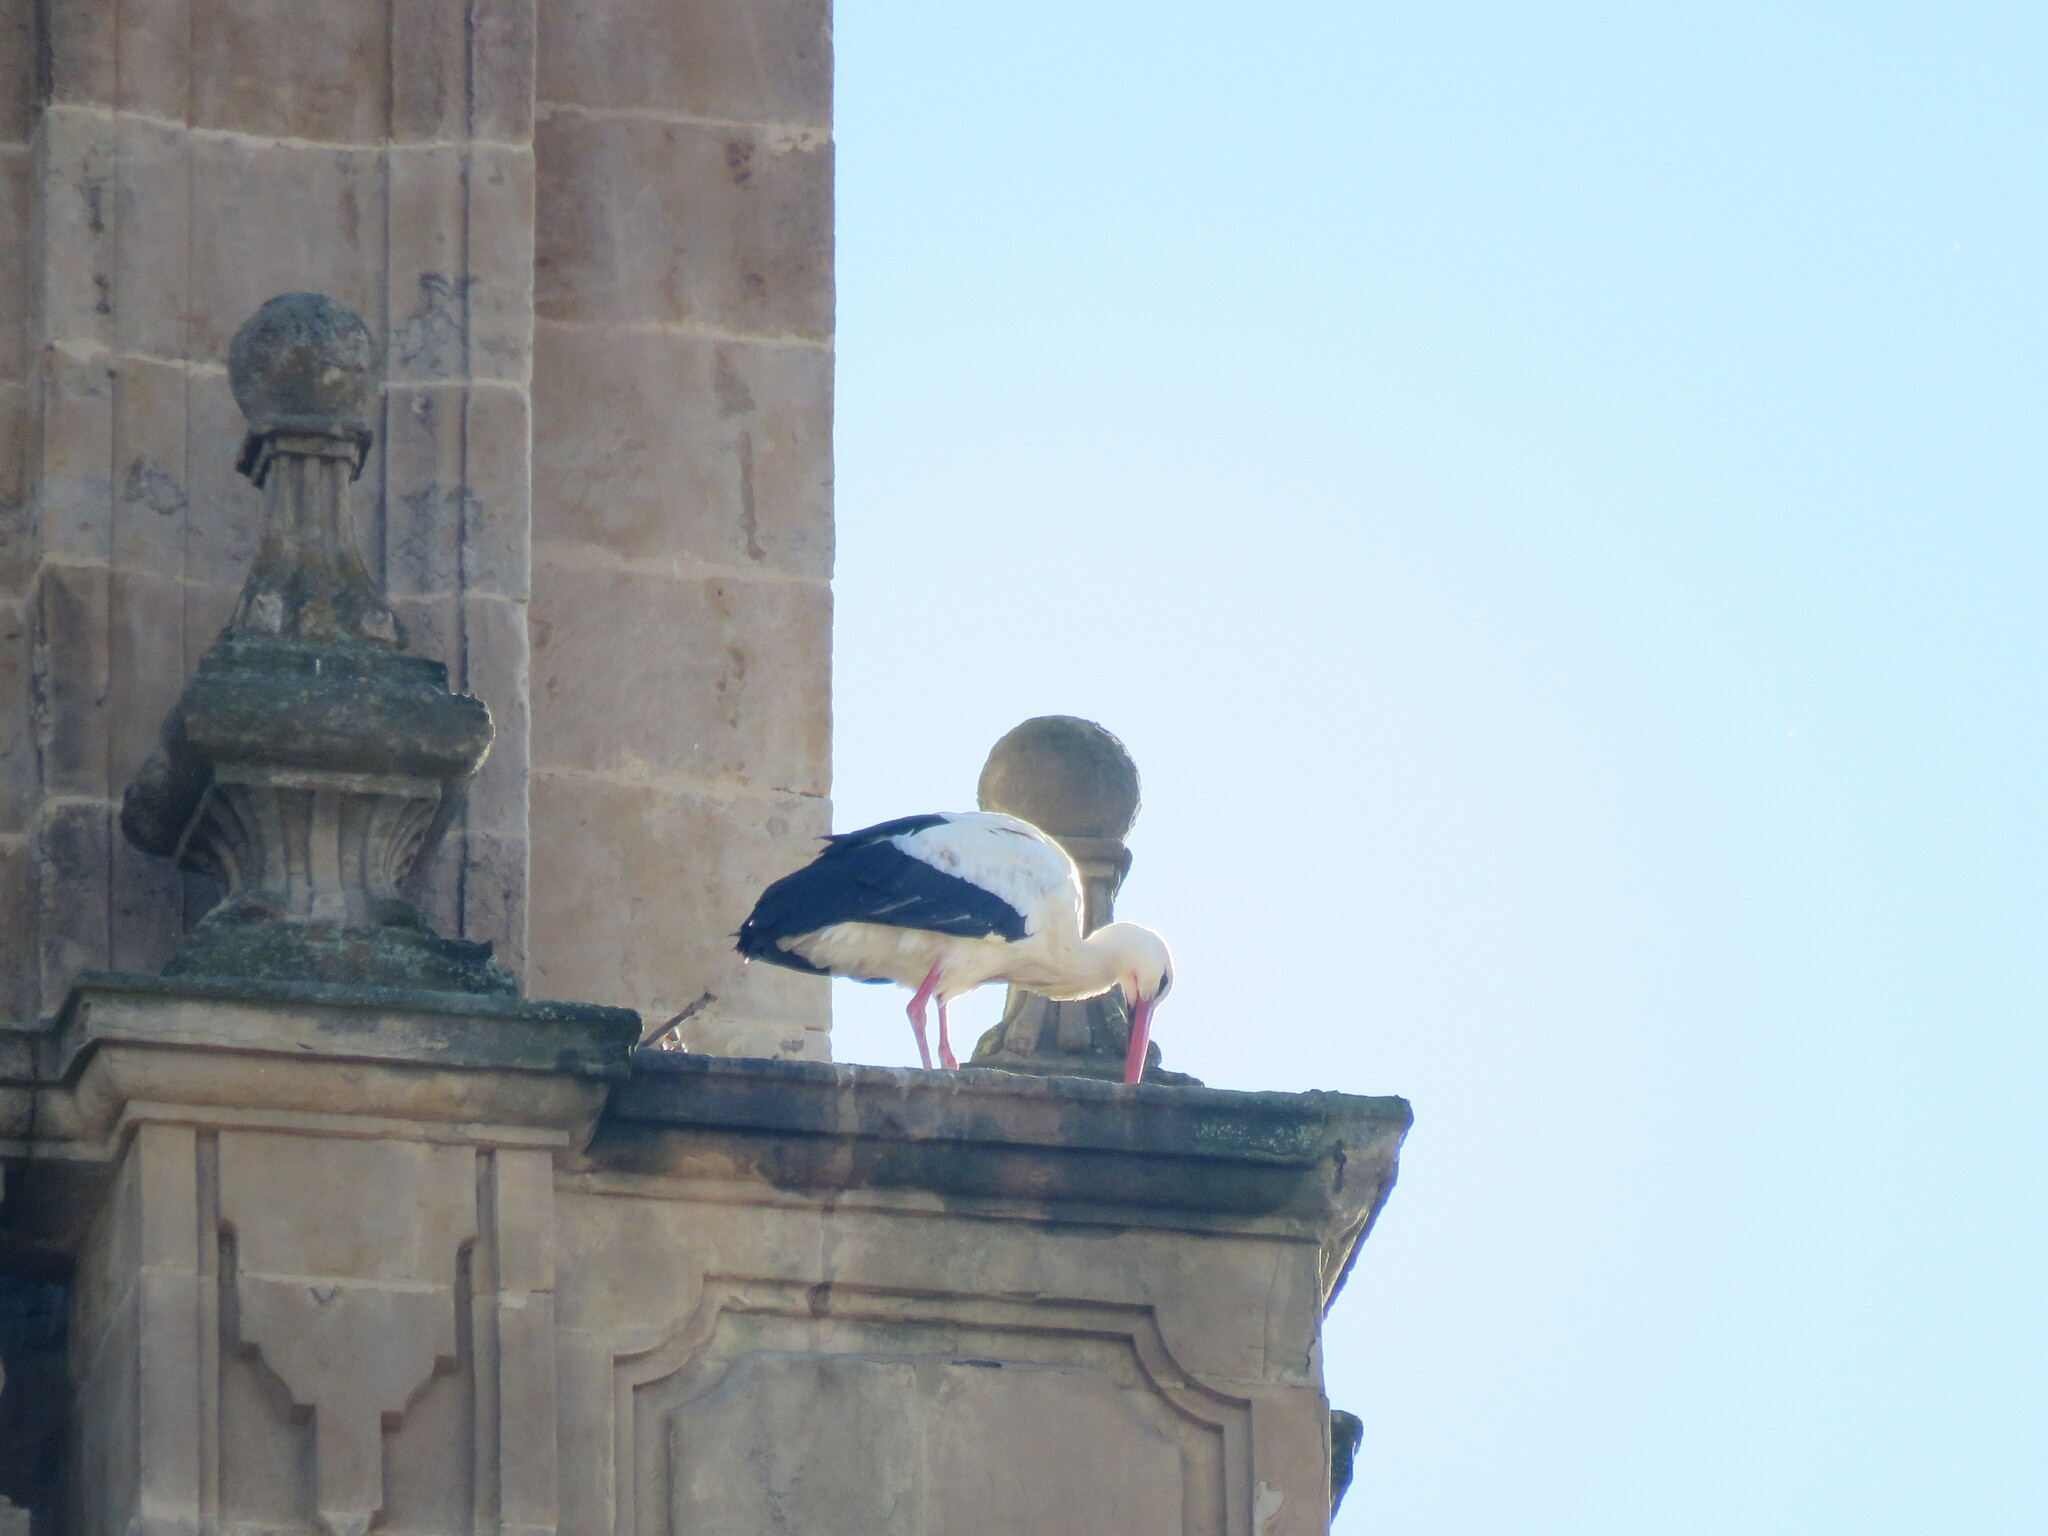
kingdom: Animalia
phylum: Chordata
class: Aves
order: Ciconiiformes
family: Ciconiidae
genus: Ciconia
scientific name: Ciconia ciconia
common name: White stork
